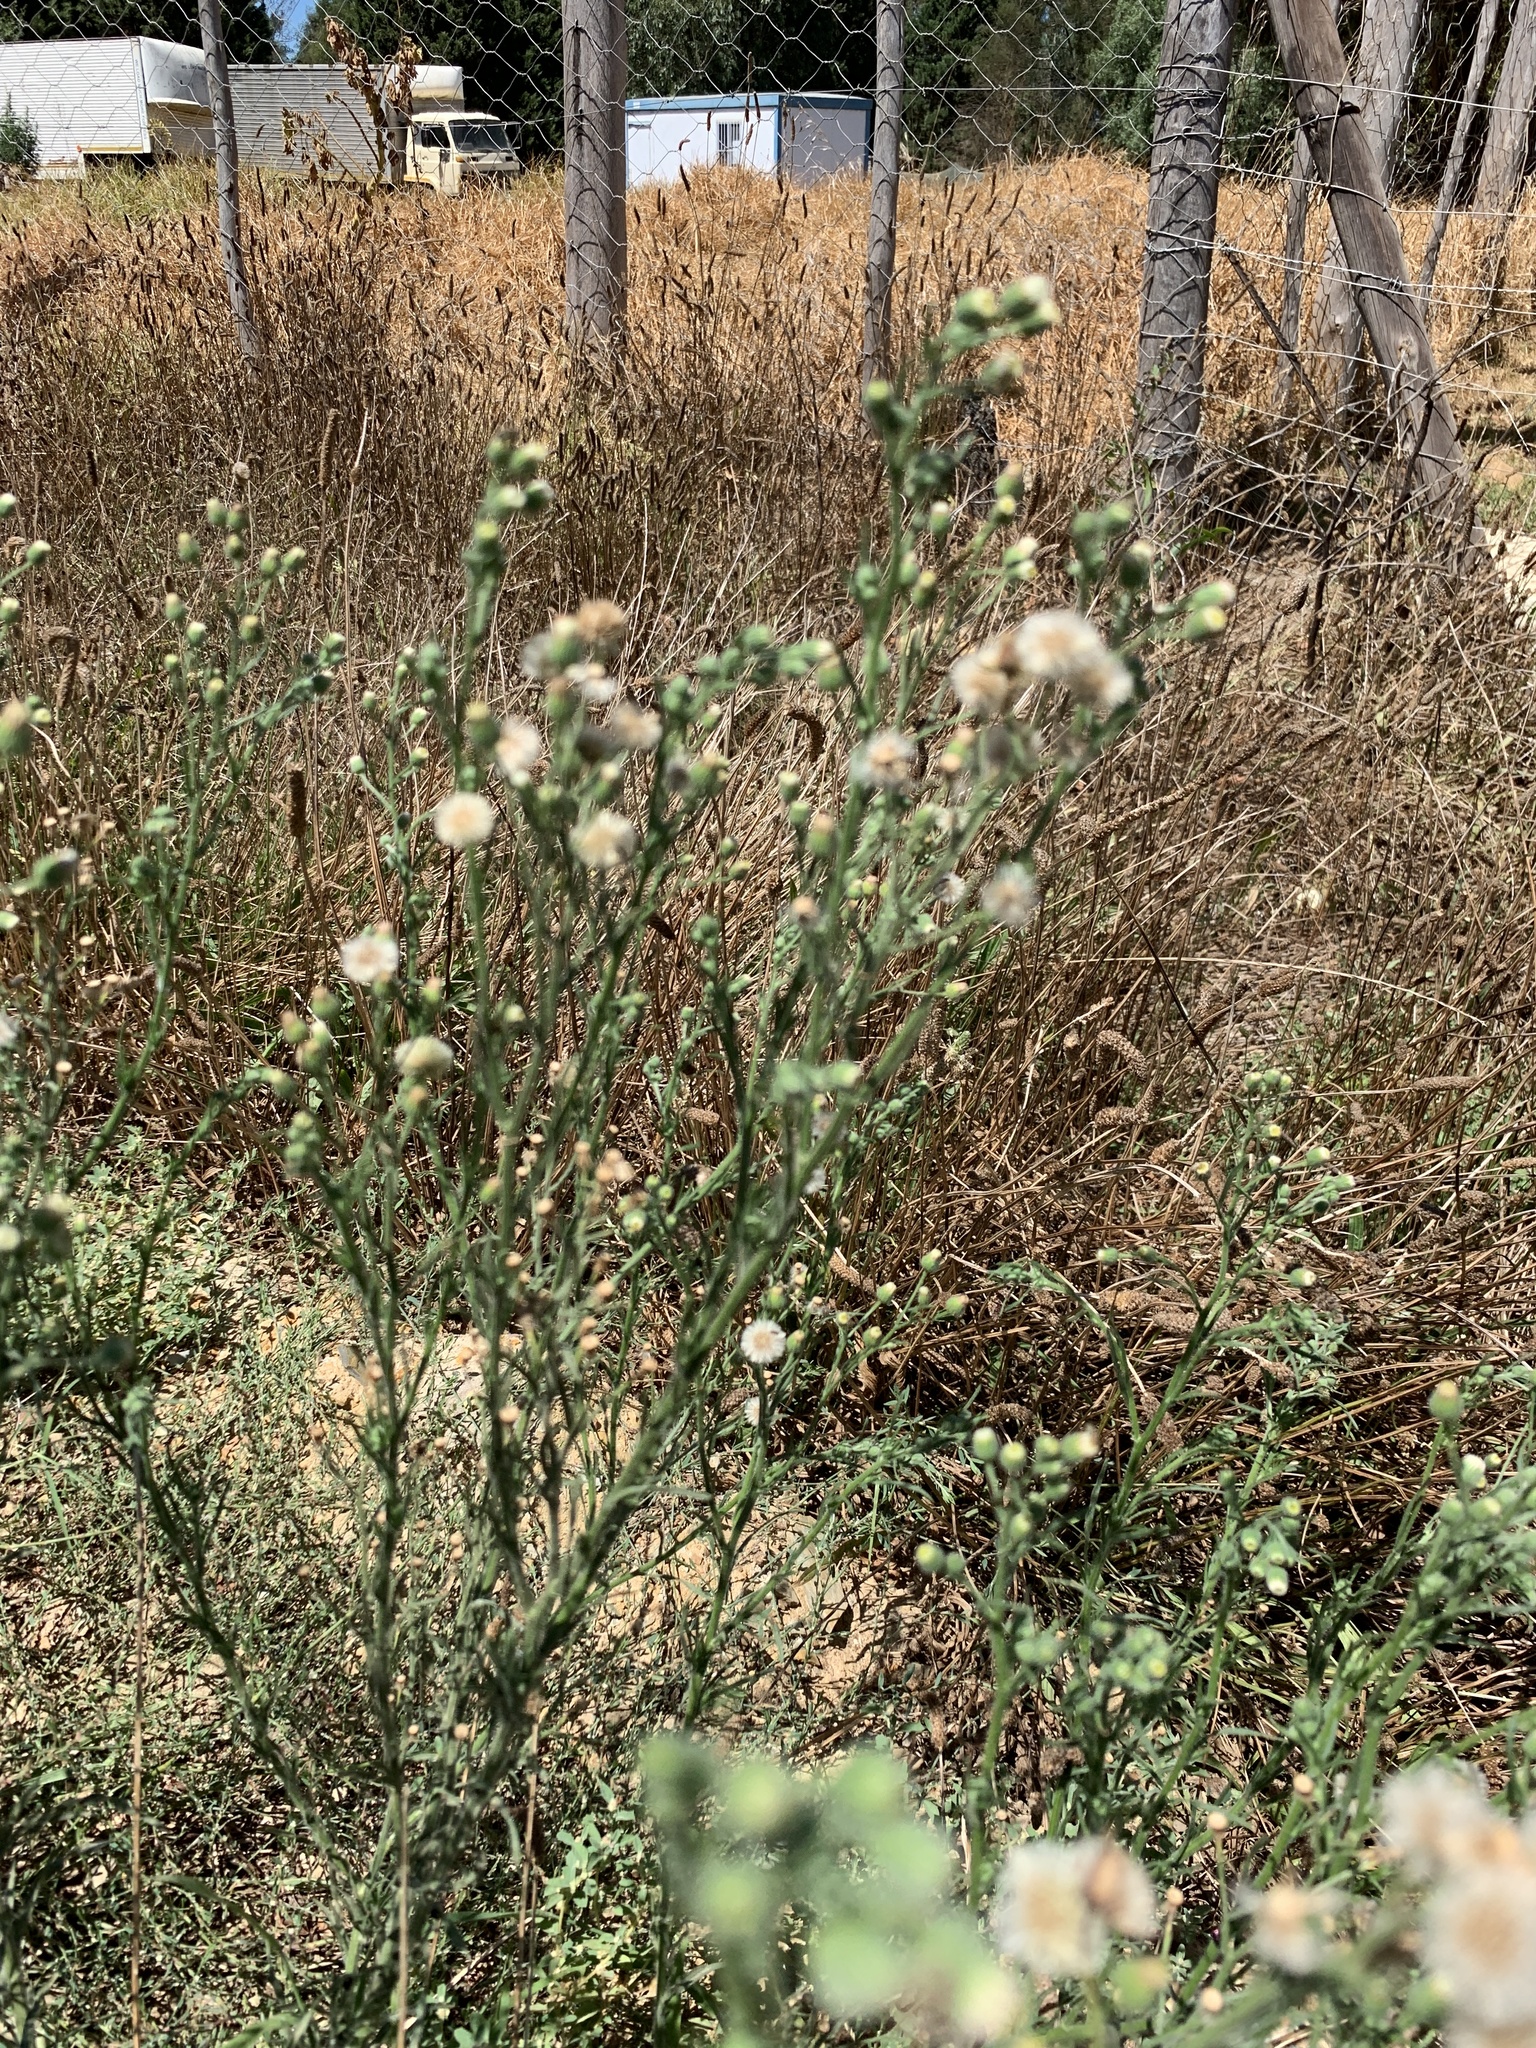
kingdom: Plantae
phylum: Tracheophyta
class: Magnoliopsida
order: Asterales
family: Asteraceae
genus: Erigeron
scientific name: Erigeron bonariensis
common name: Argentine fleabane
